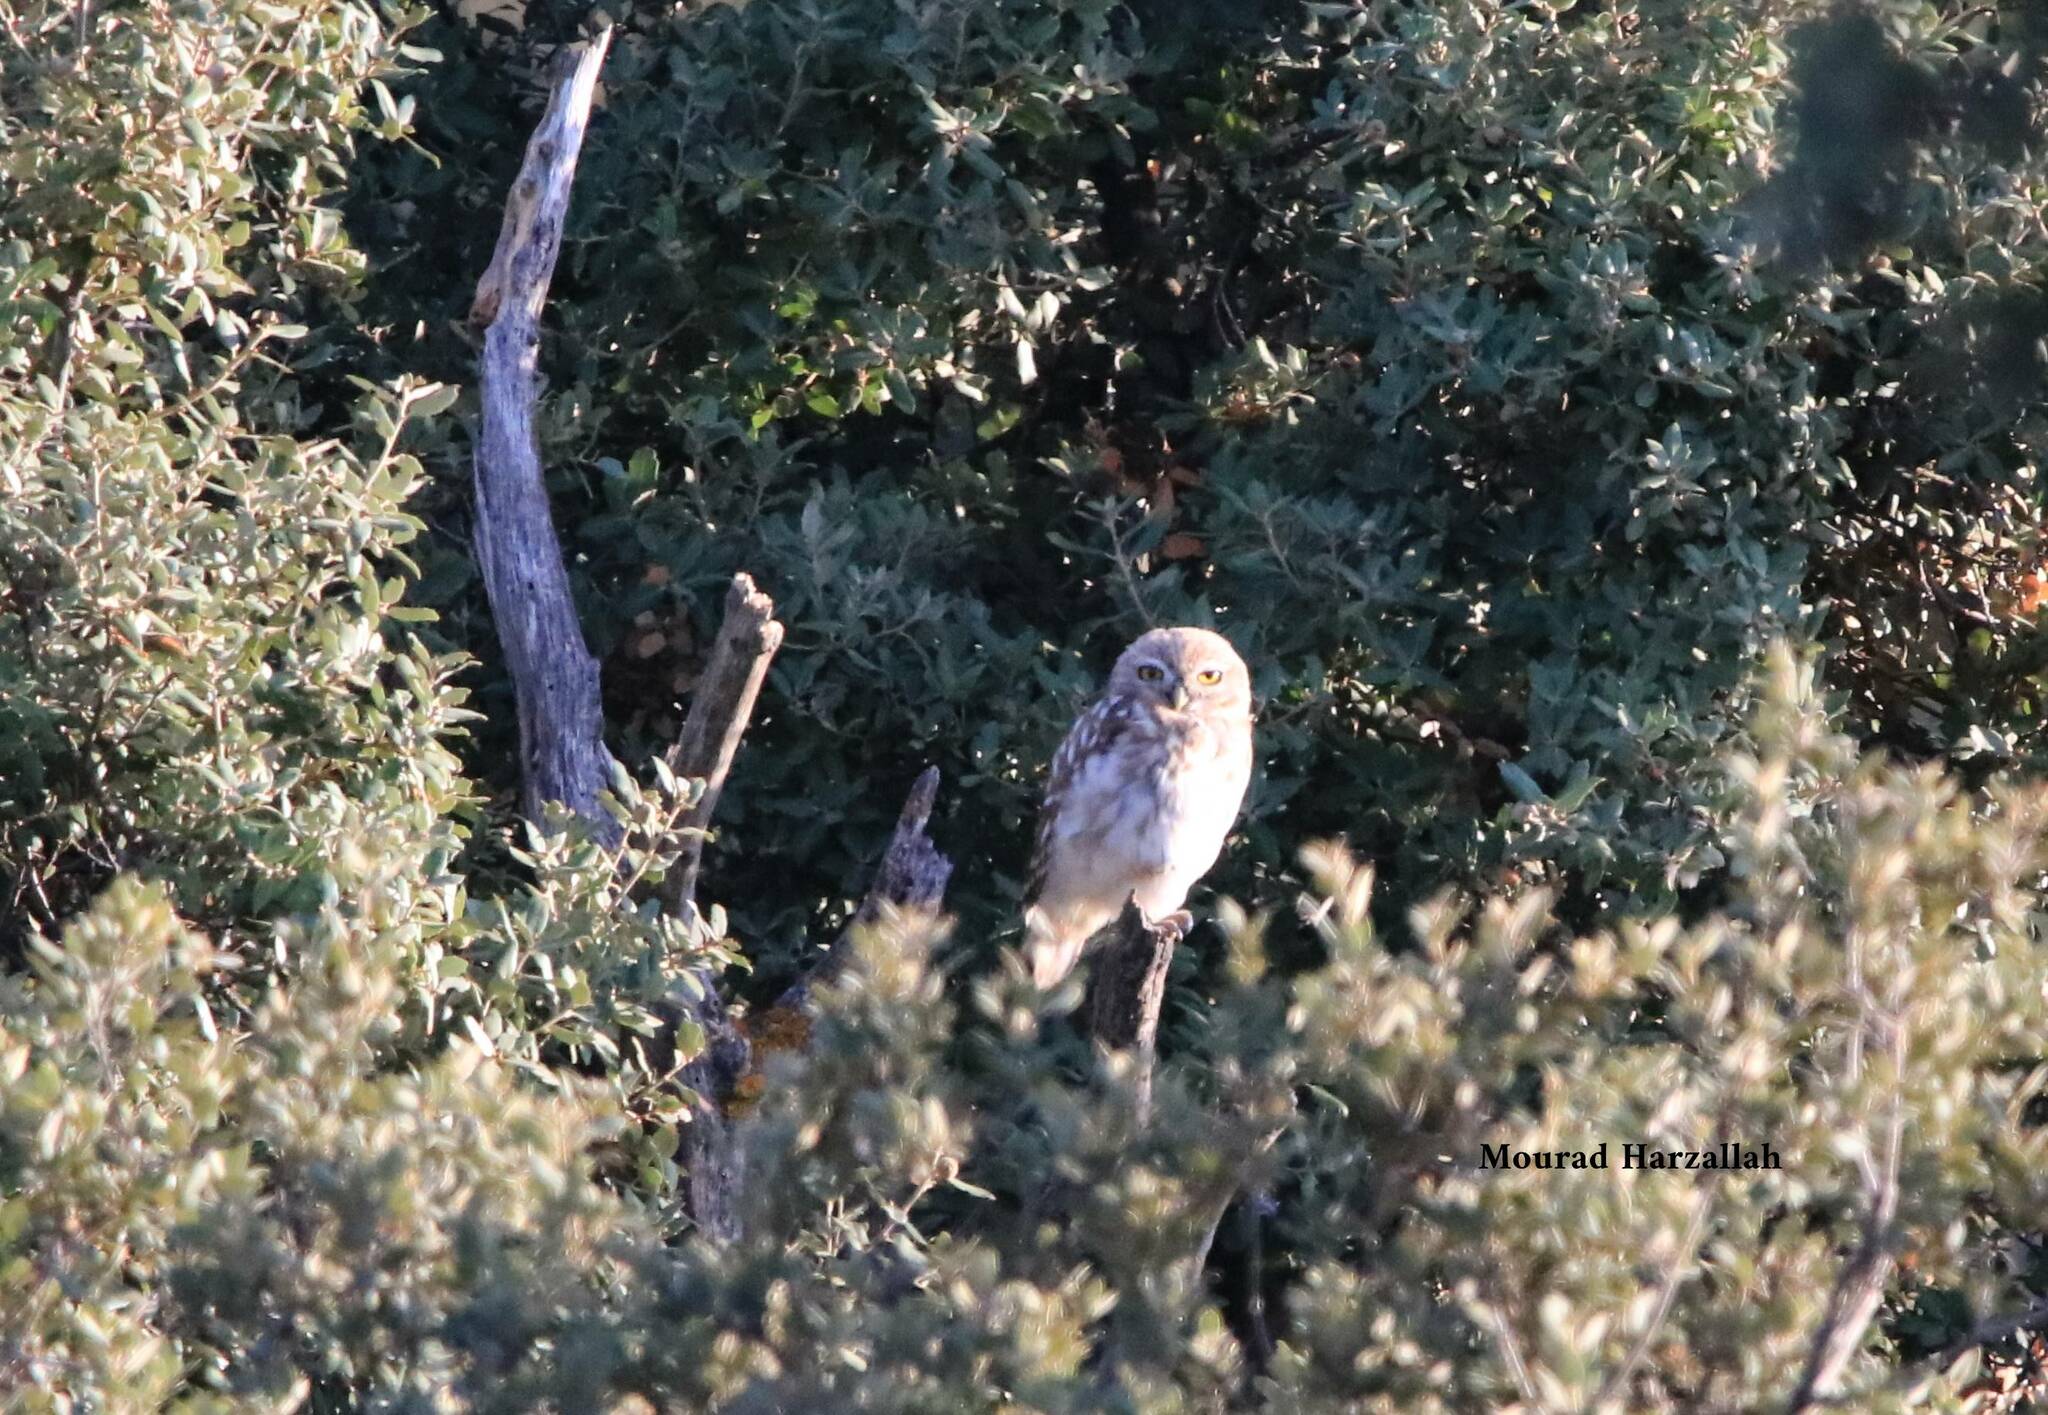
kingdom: Animalia
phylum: Chordata
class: Aves
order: Strigiformes
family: Strigidae
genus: Athene
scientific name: Athene noctua
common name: Little owl
